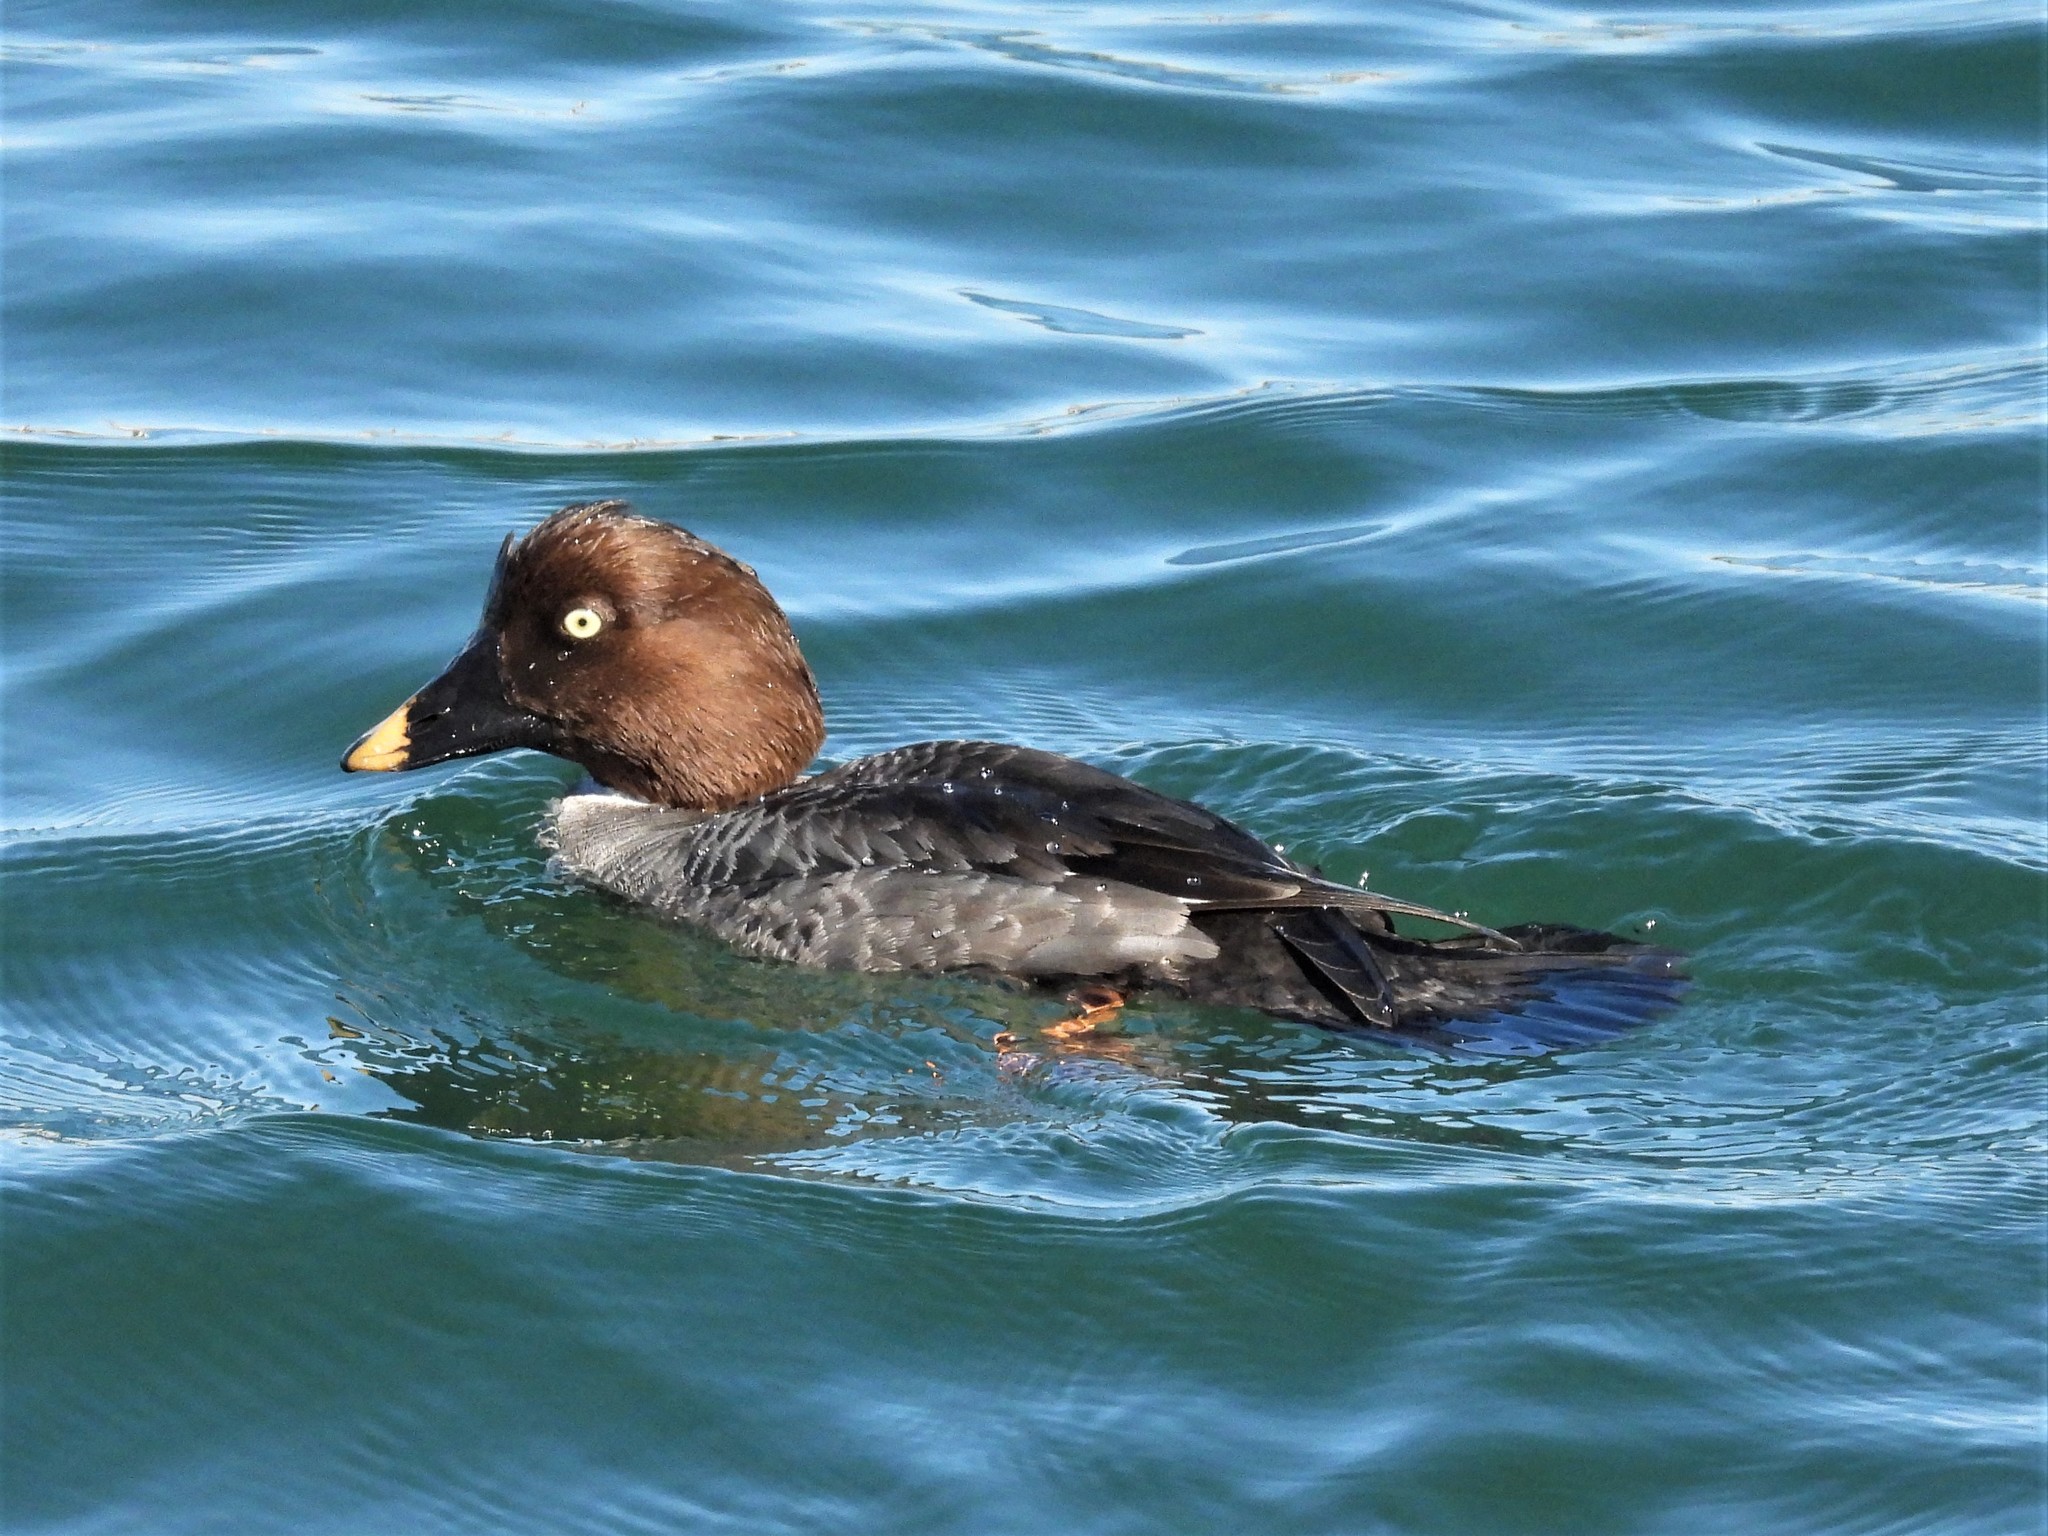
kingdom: Animalia
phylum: Chordata
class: Aves
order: Anseriformes
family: Anatidae
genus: Bucephala
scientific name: Bucephala clangula
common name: Common goldeneye
